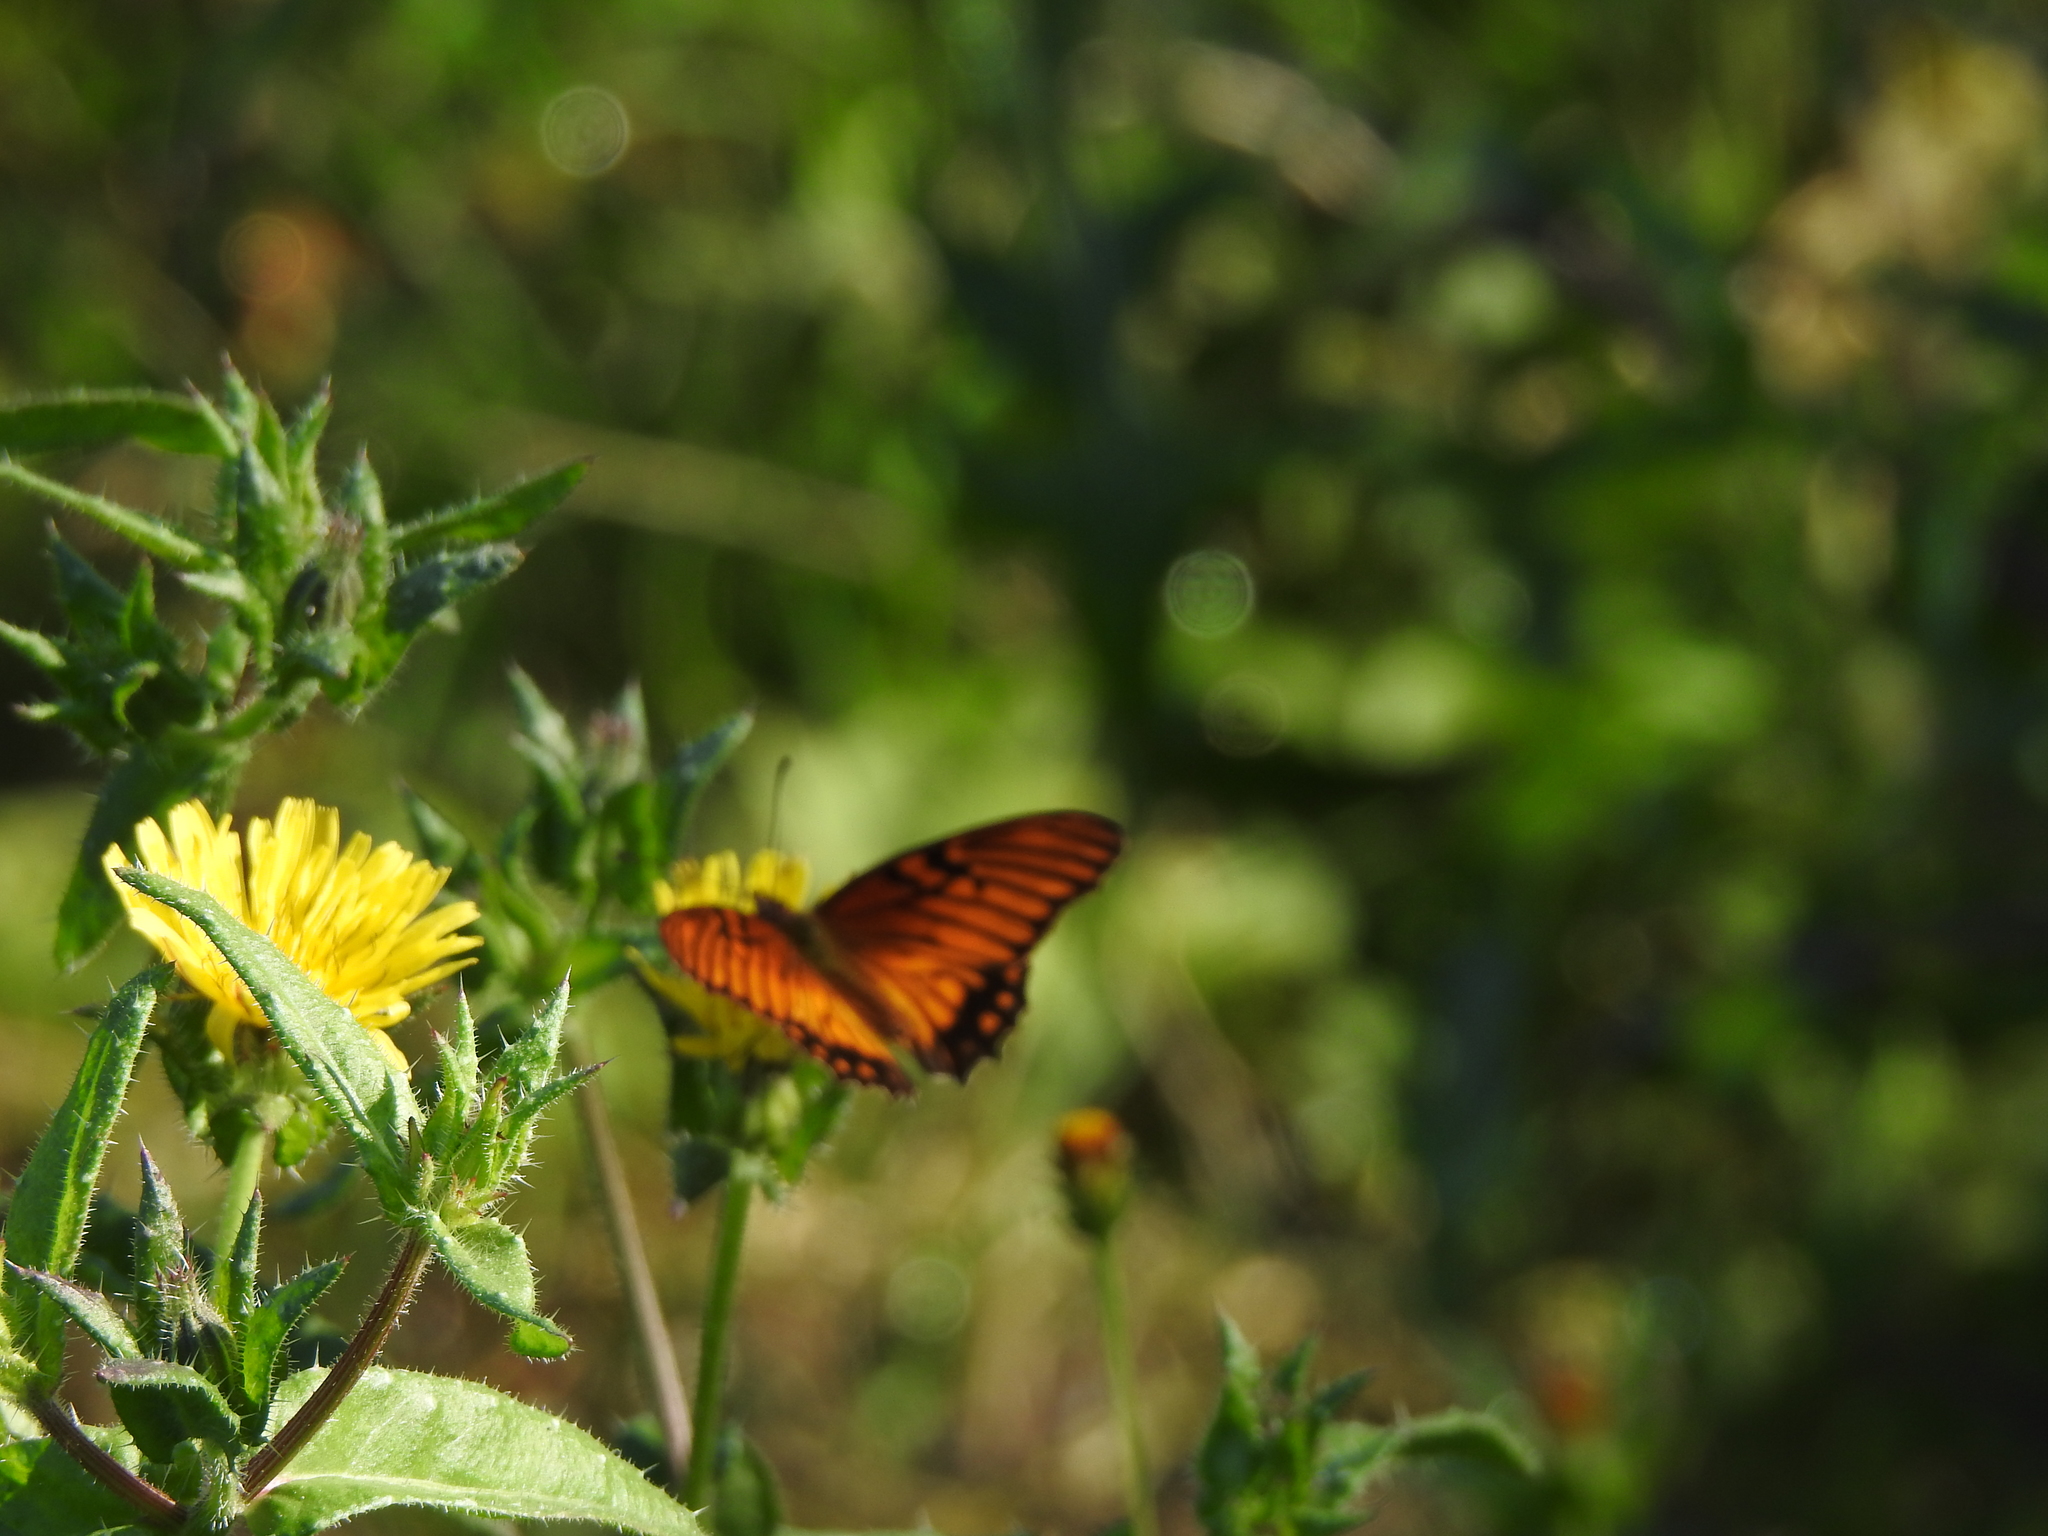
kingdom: Animalia
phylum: Arthropoda
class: Insecta
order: Lepidoptera
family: Nymphalidae
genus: Dione
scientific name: Dione moneta
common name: Mexican silverspot
